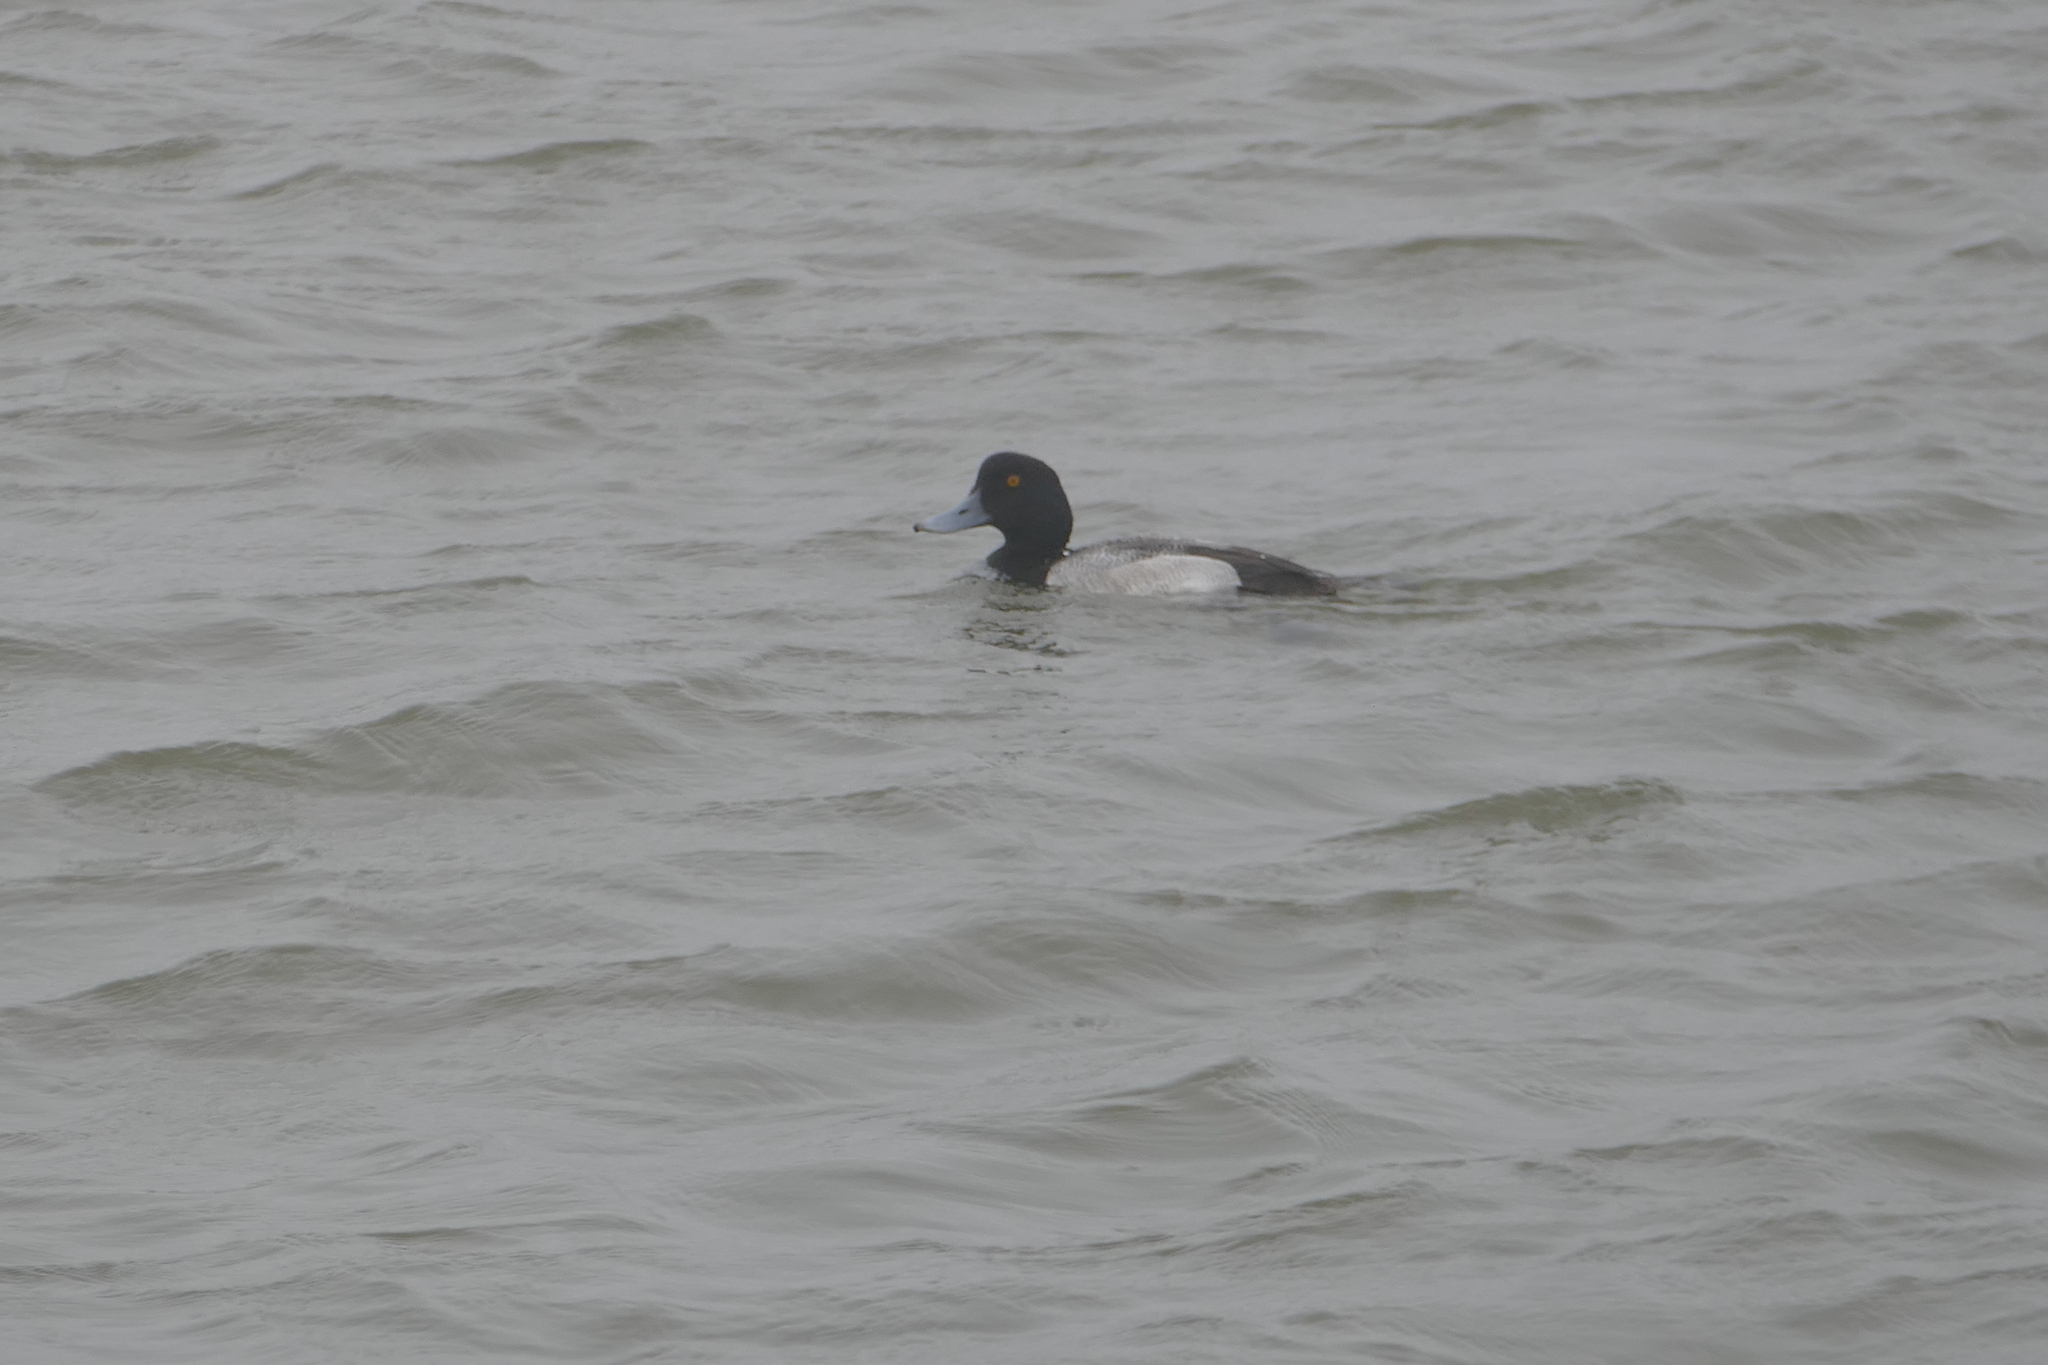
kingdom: Animalia
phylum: Chordata
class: Aves
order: Anseriformes
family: Anatidae
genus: Aythya
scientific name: Aythya marila
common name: Greater scaup
